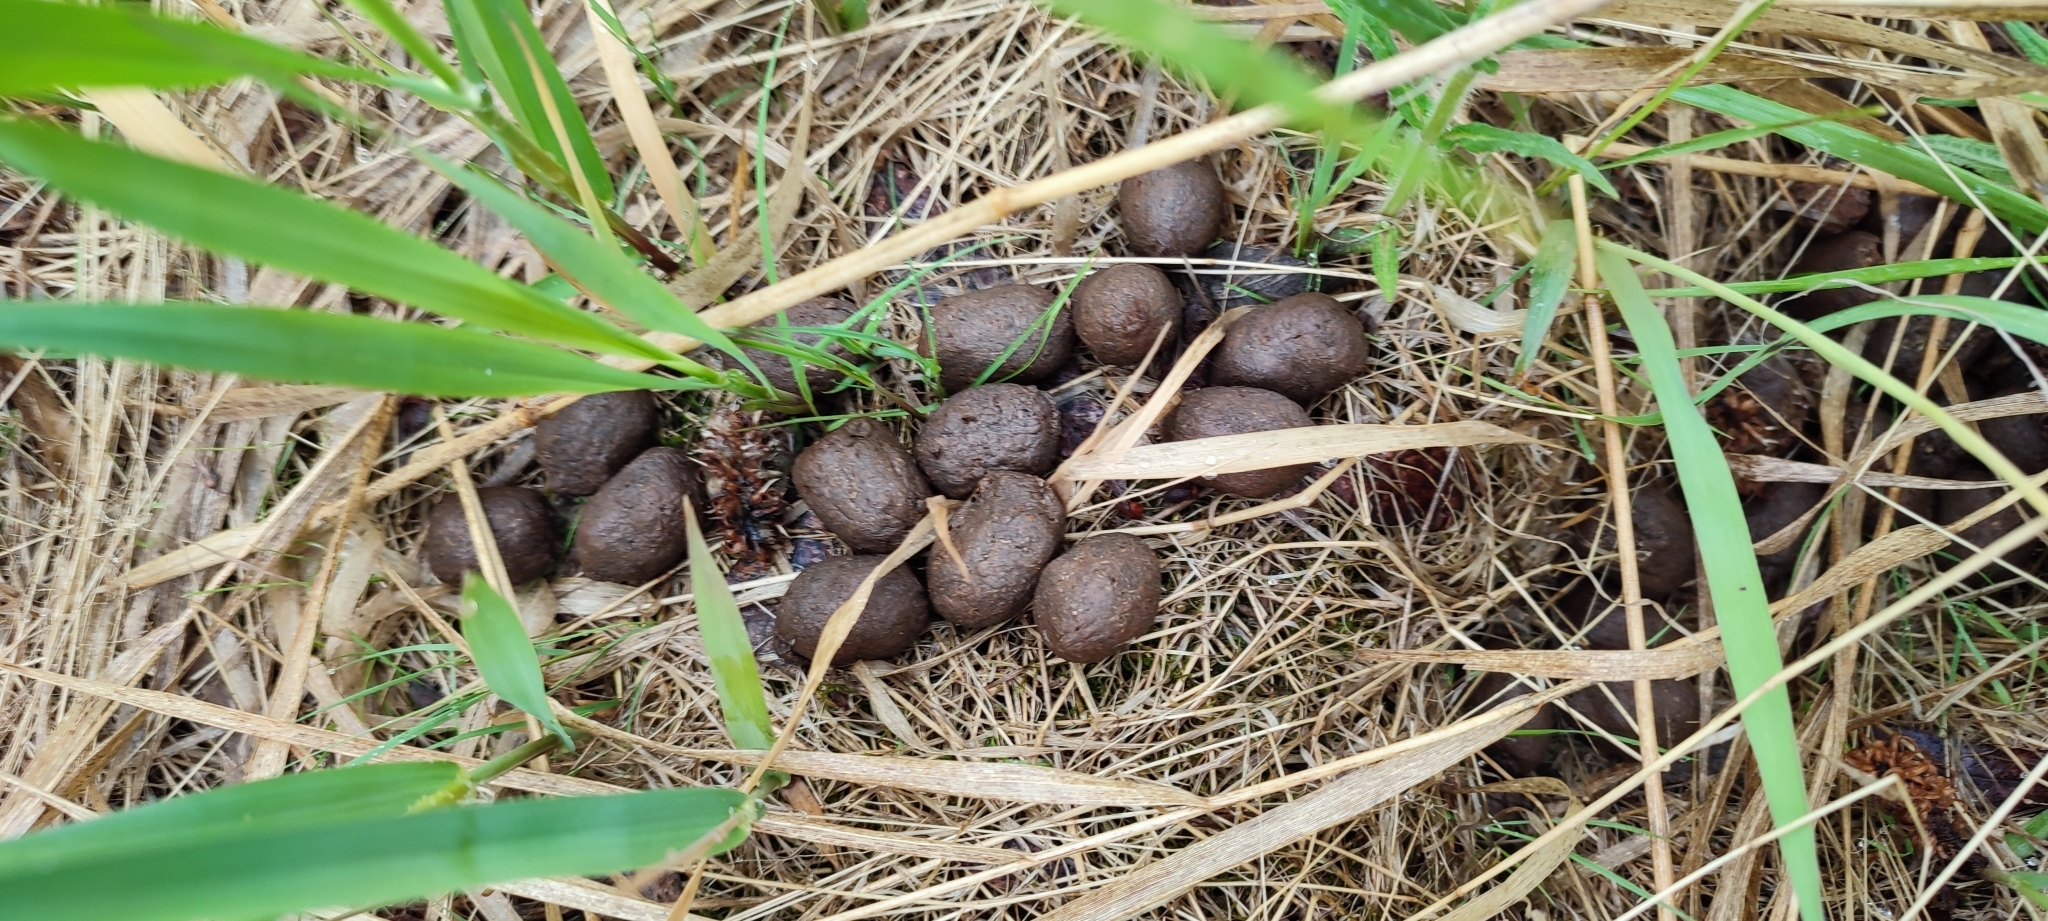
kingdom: Animalia
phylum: Chordata
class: Mammalia
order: Artiodactyla
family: Cervidae
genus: Alces
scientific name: Alces alces
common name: Moose
